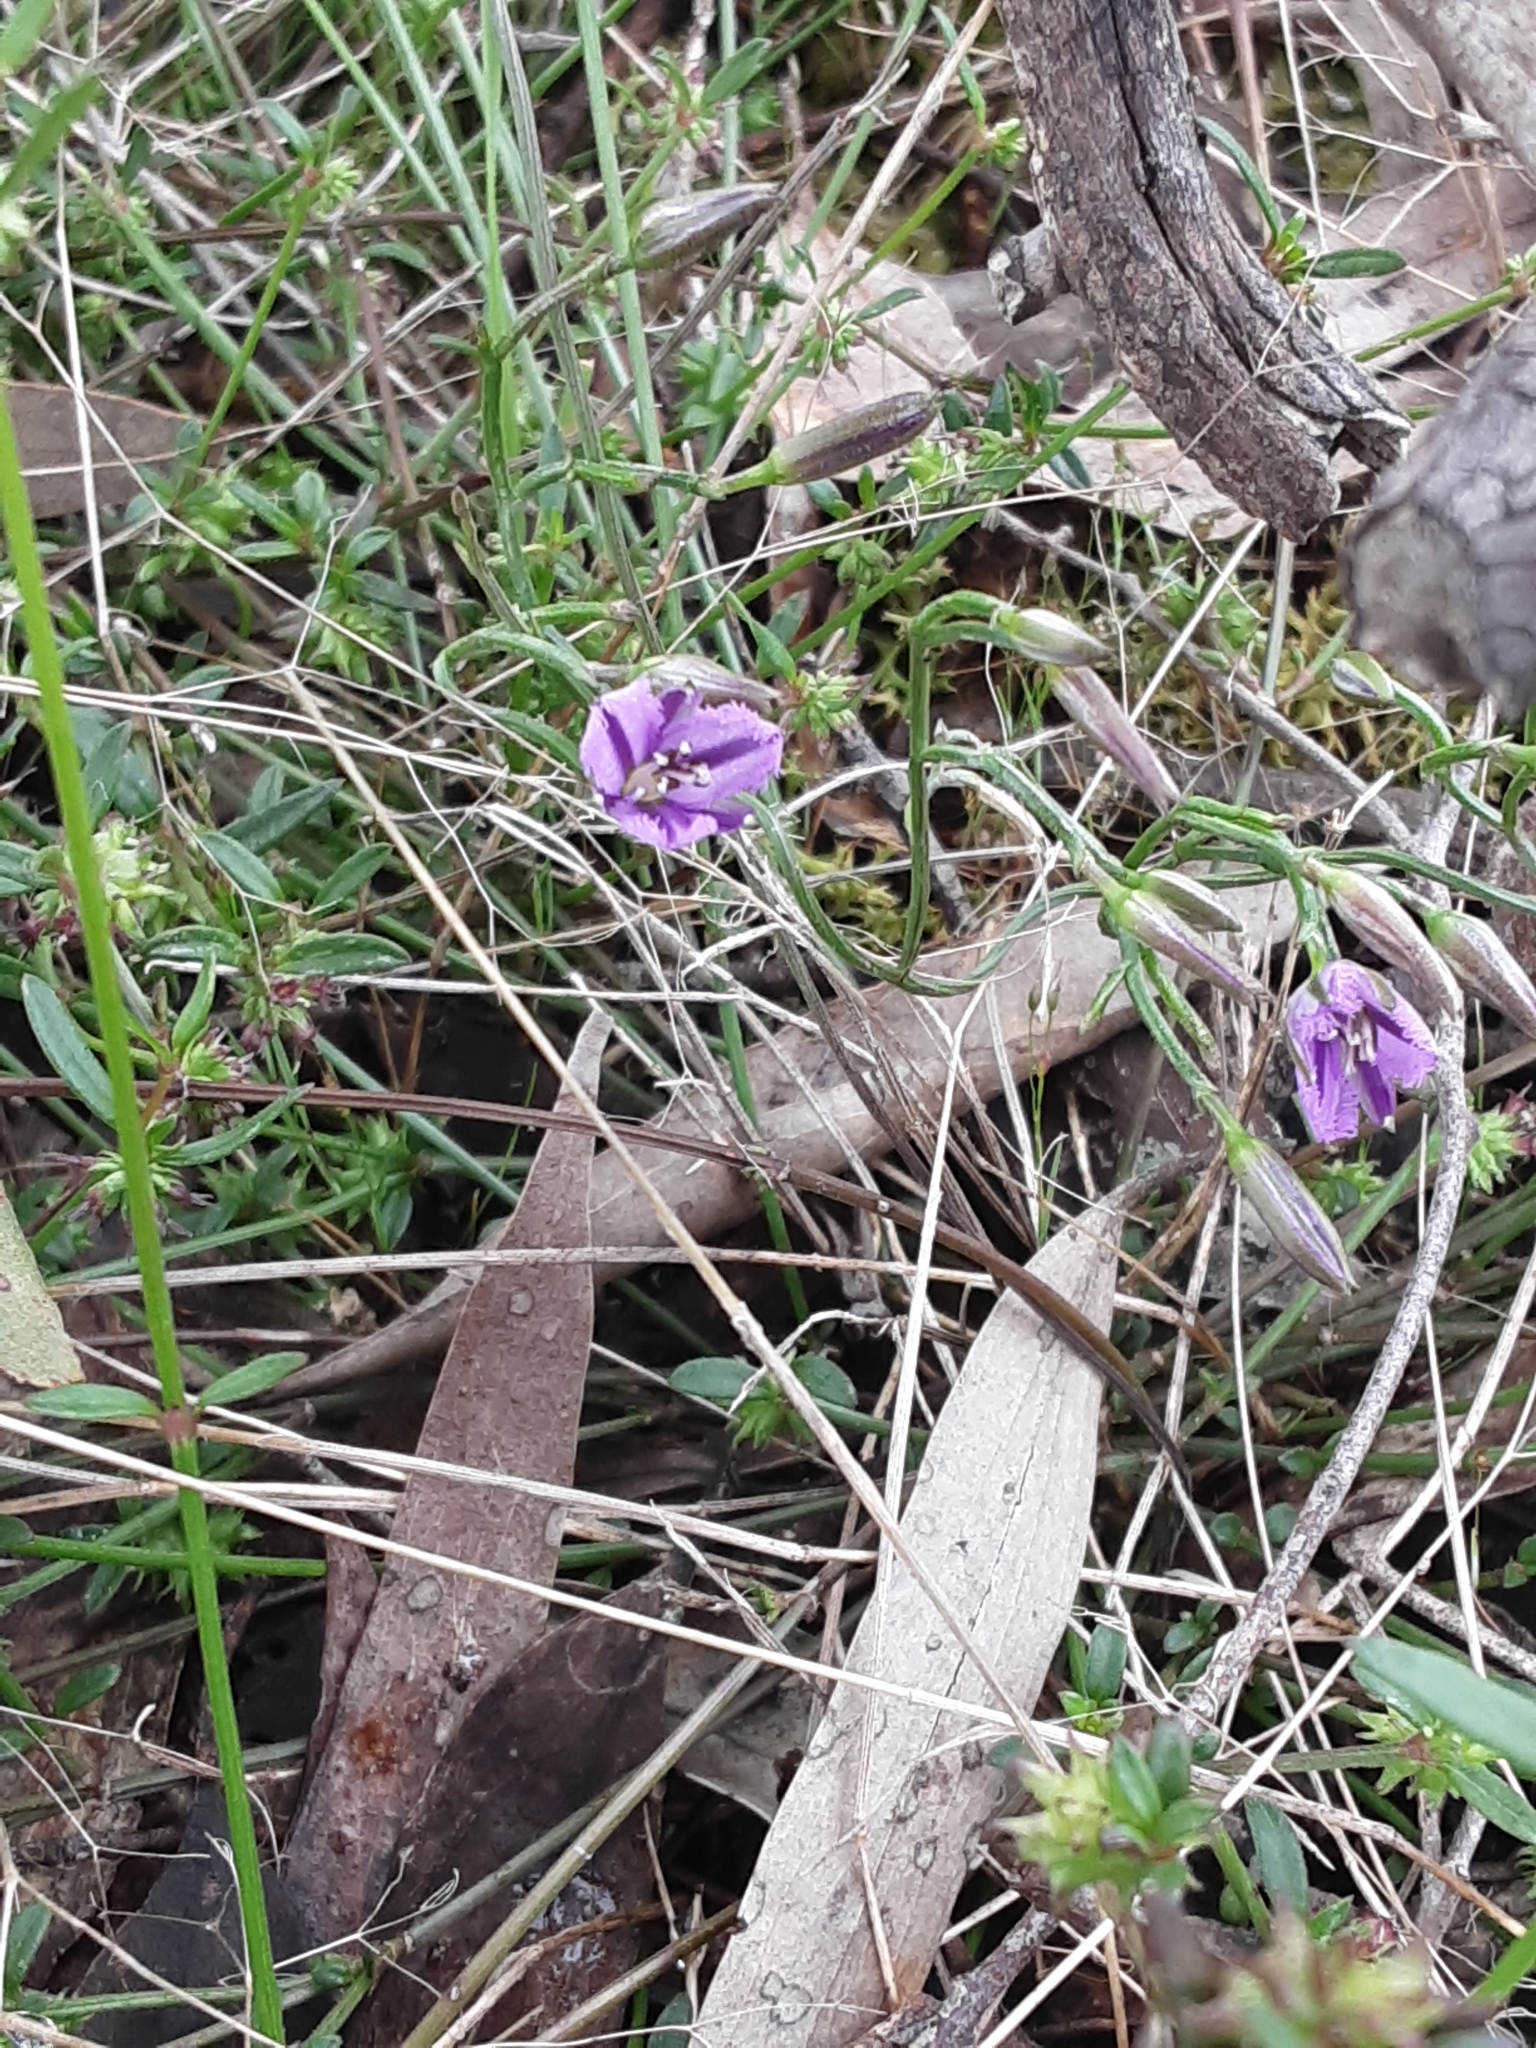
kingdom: Plantae
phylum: Tracheophyta
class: Liliopsida
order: Asparagales
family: Asparagaceae
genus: Thysanotus
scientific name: Thysanotus patersonii
